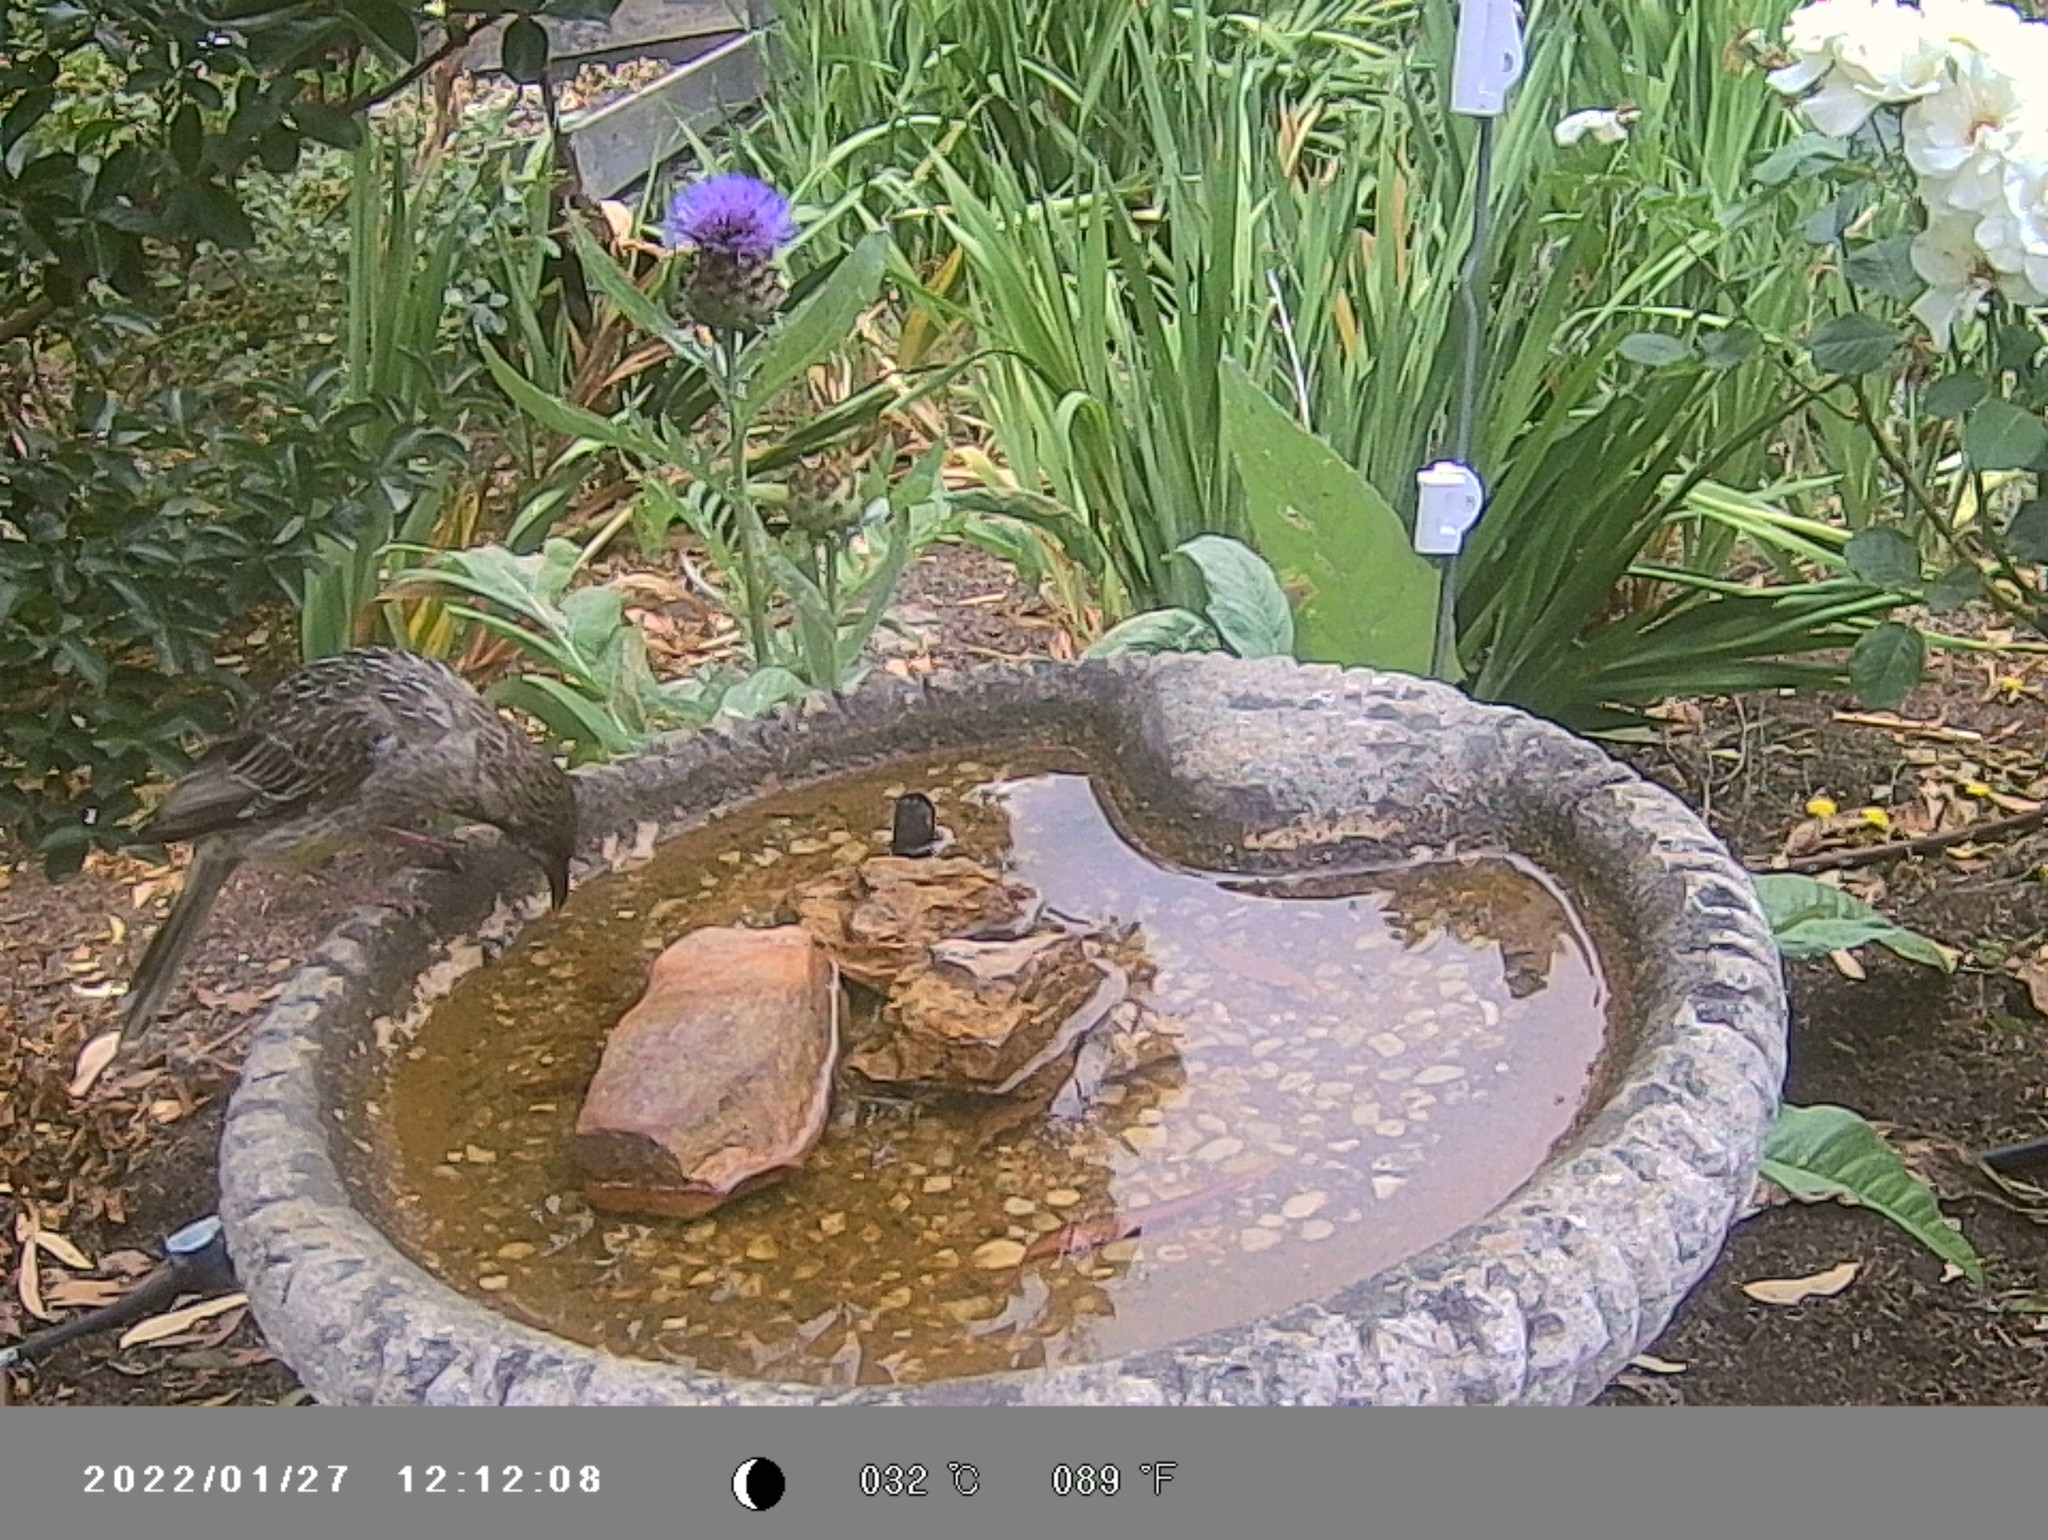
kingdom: Animalia
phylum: Chordata
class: Aves
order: Passeriformes
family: Meliphagidae
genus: Anthochaera
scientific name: Anthochaera carunculata
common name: Red wattlebird
